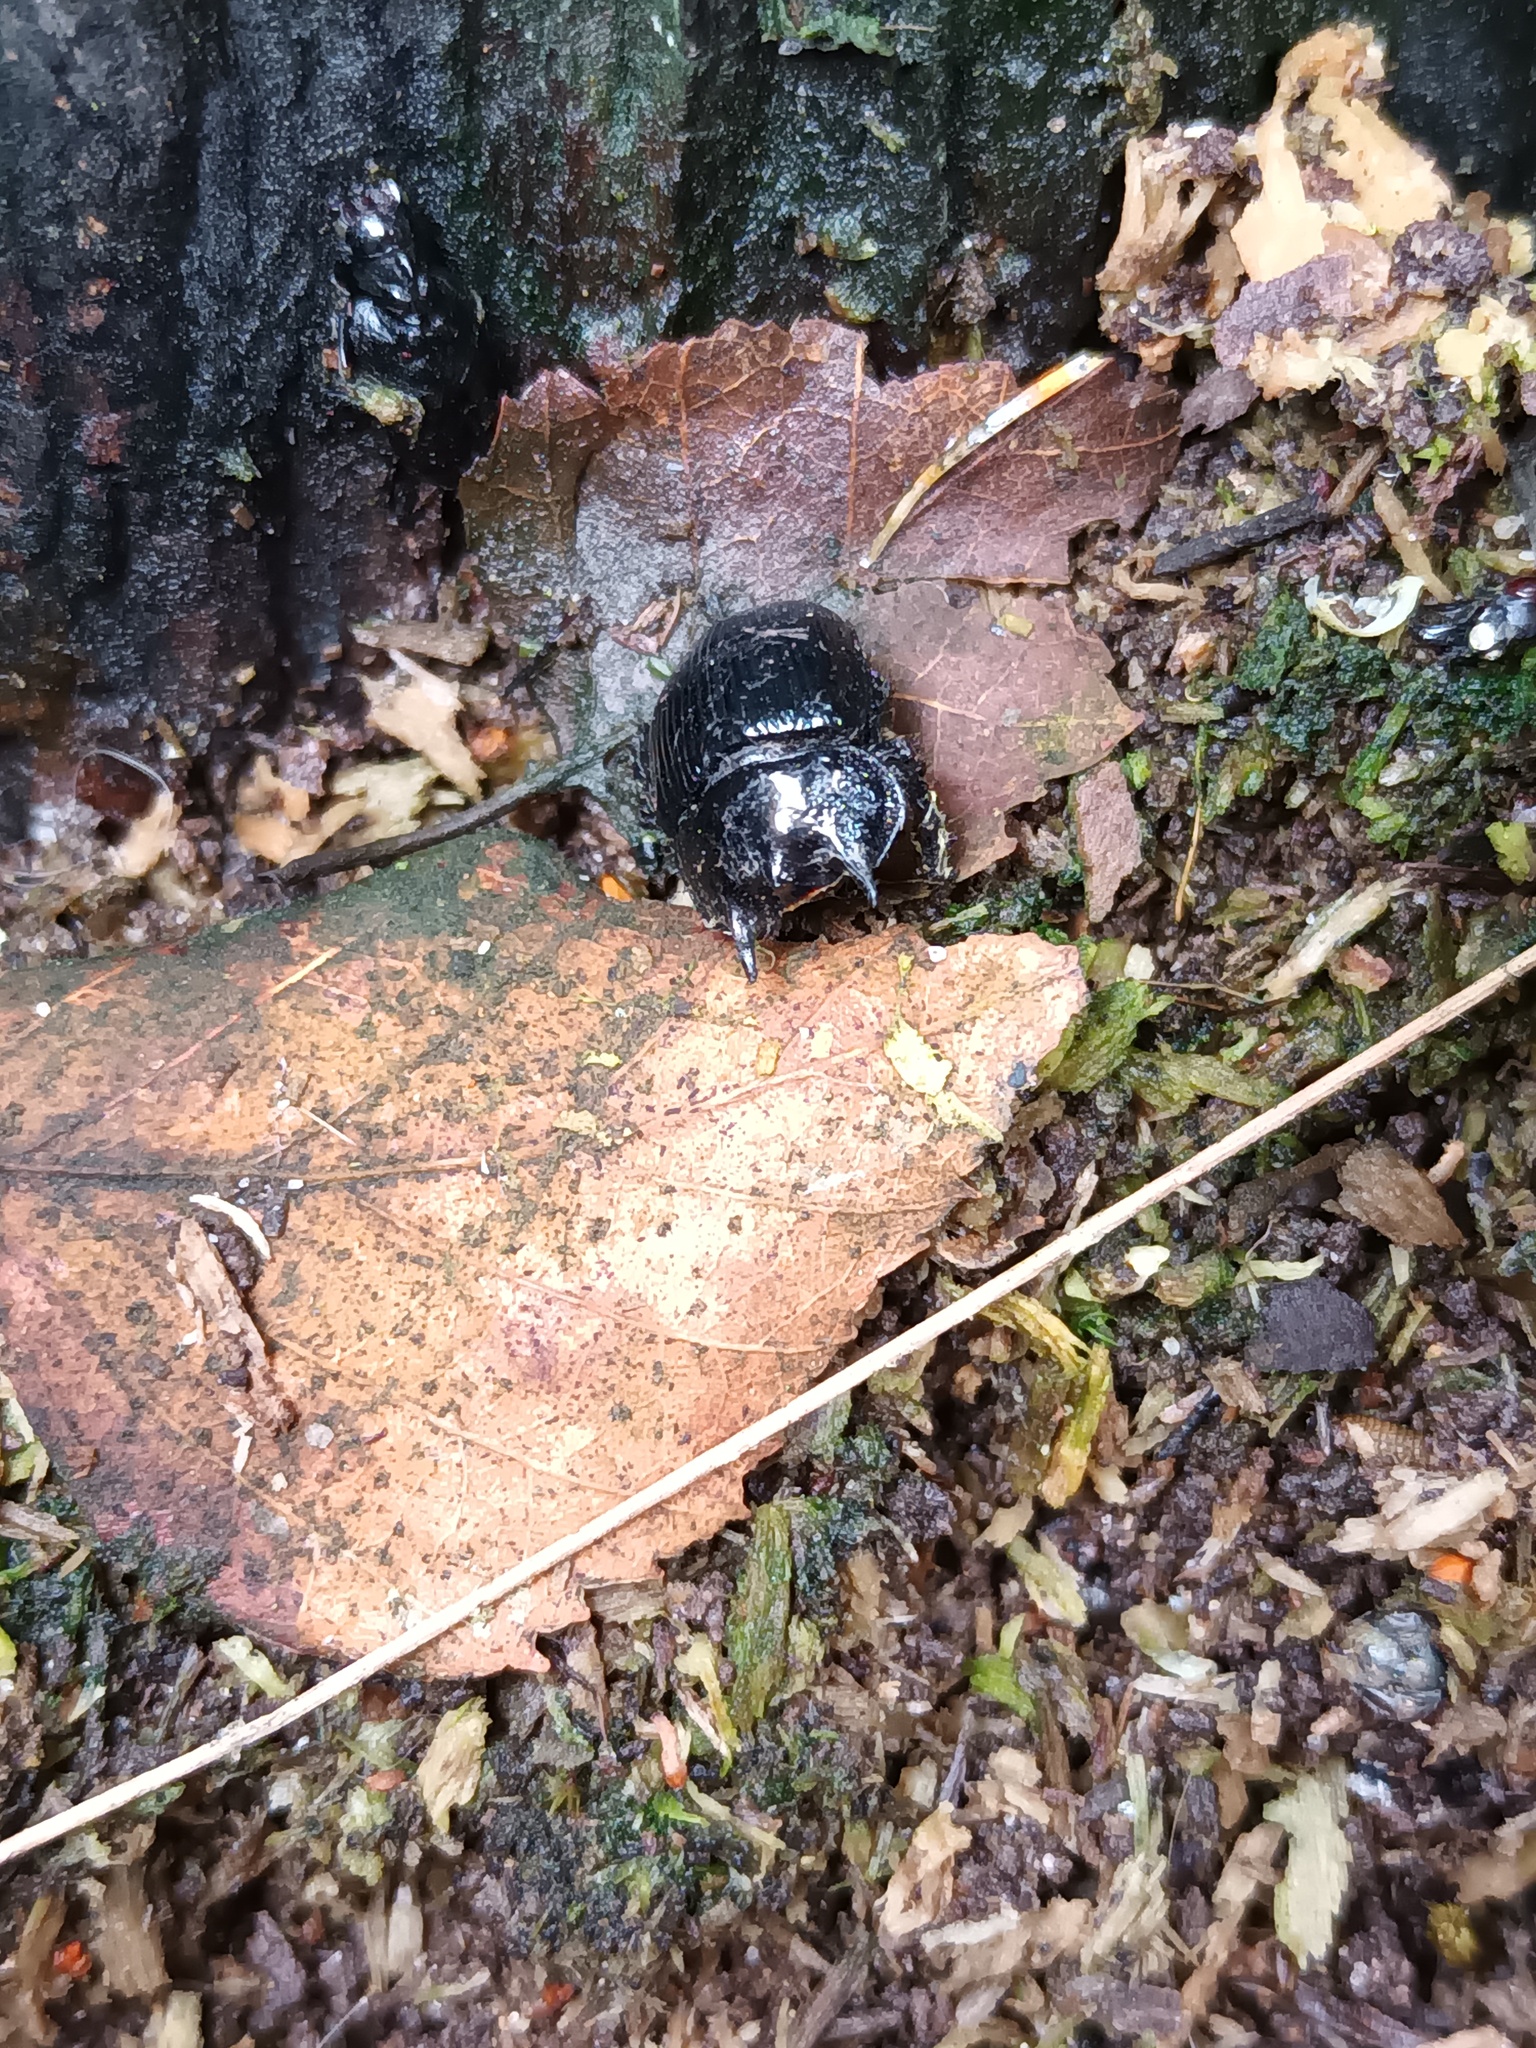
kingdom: Animalia
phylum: Arthropoda
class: Insecta
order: Coleoptera
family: Geotrupidae
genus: Typhaeus
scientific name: Typhaeus typhoeus
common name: Minotaur beetle
